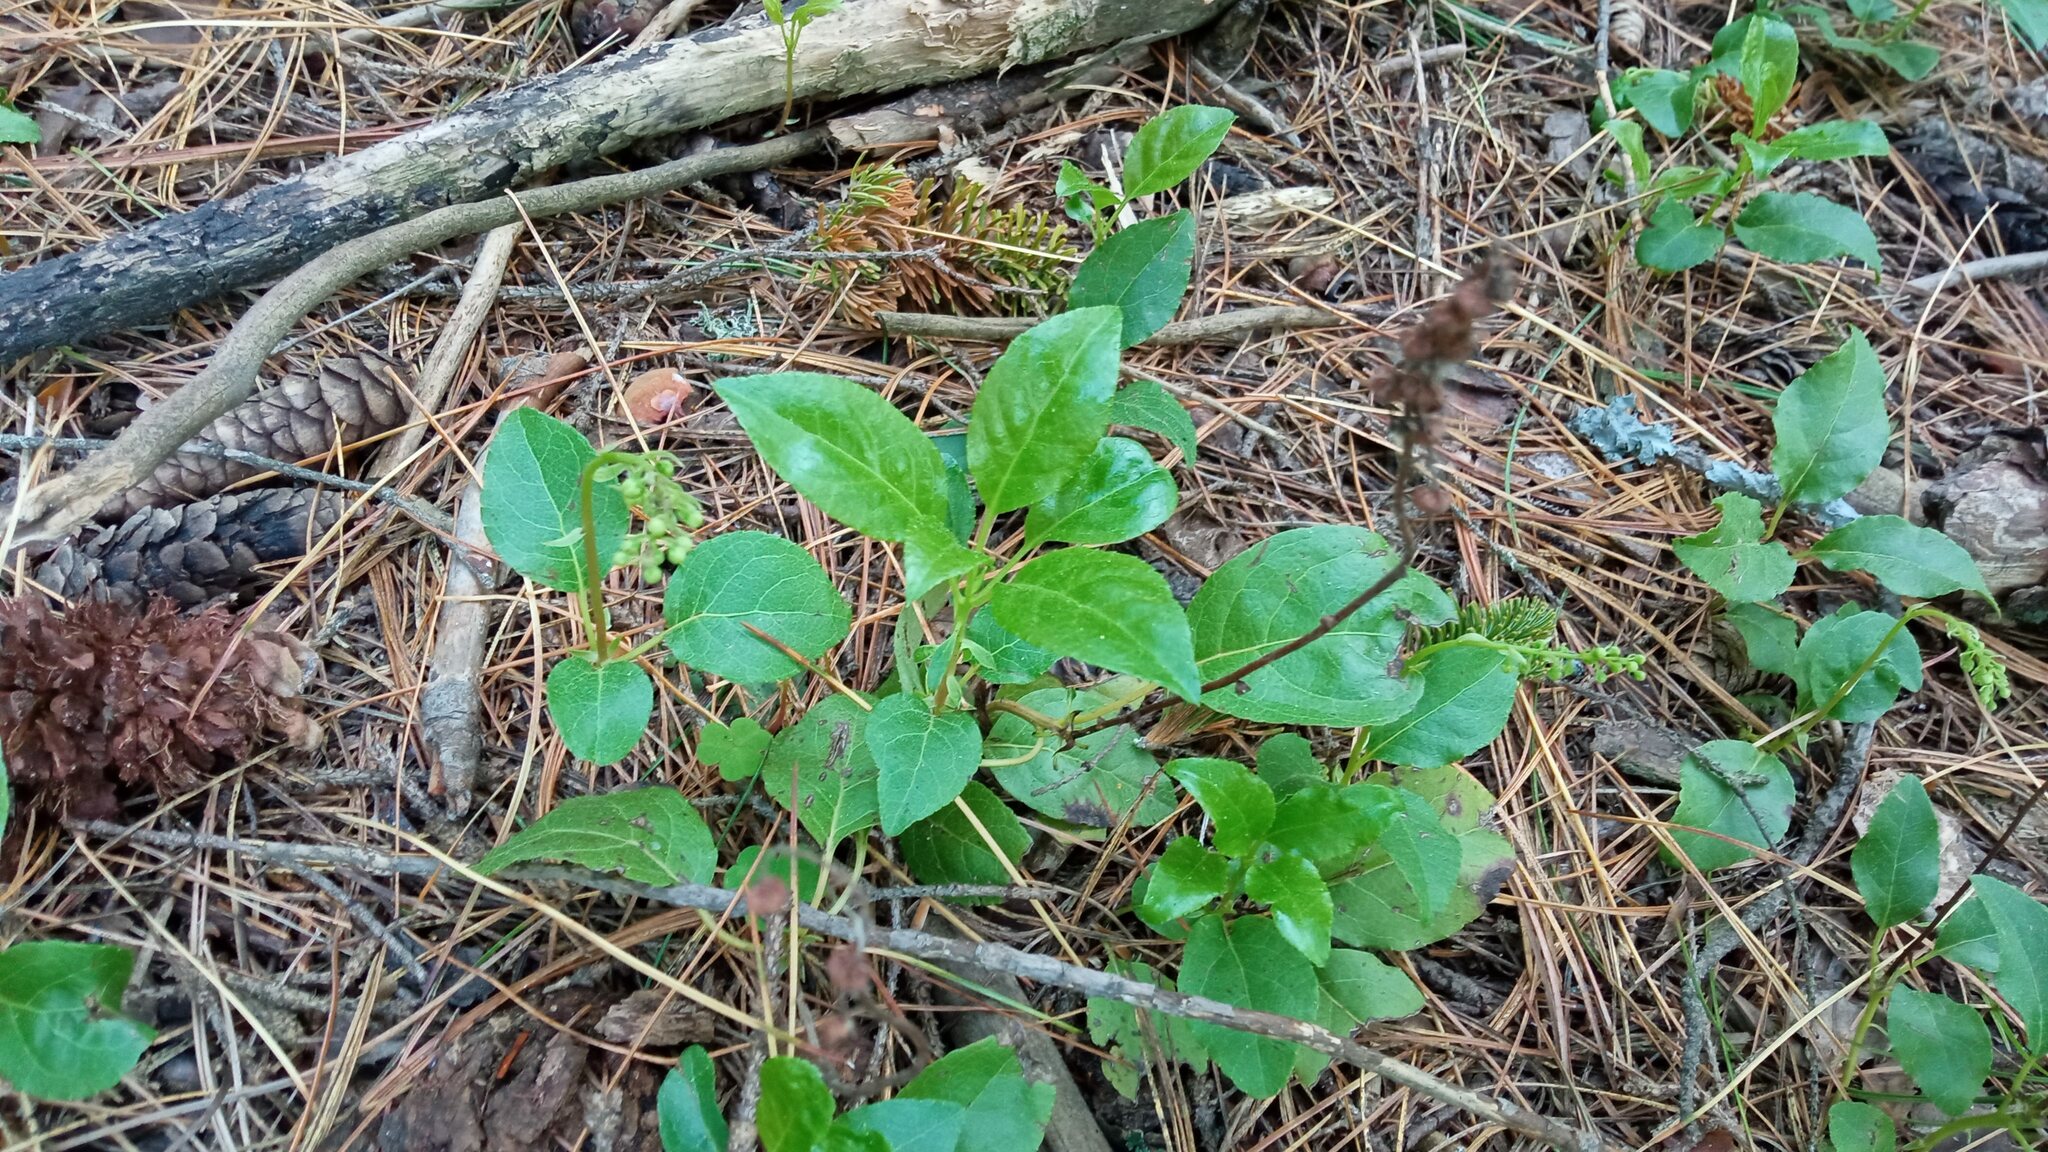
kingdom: Plantae
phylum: Tracheophyta
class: Magnoliopsida
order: Ericales
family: Ericaceae
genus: Orthilia
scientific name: Orthilia secunda
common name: One-sided orthilia
